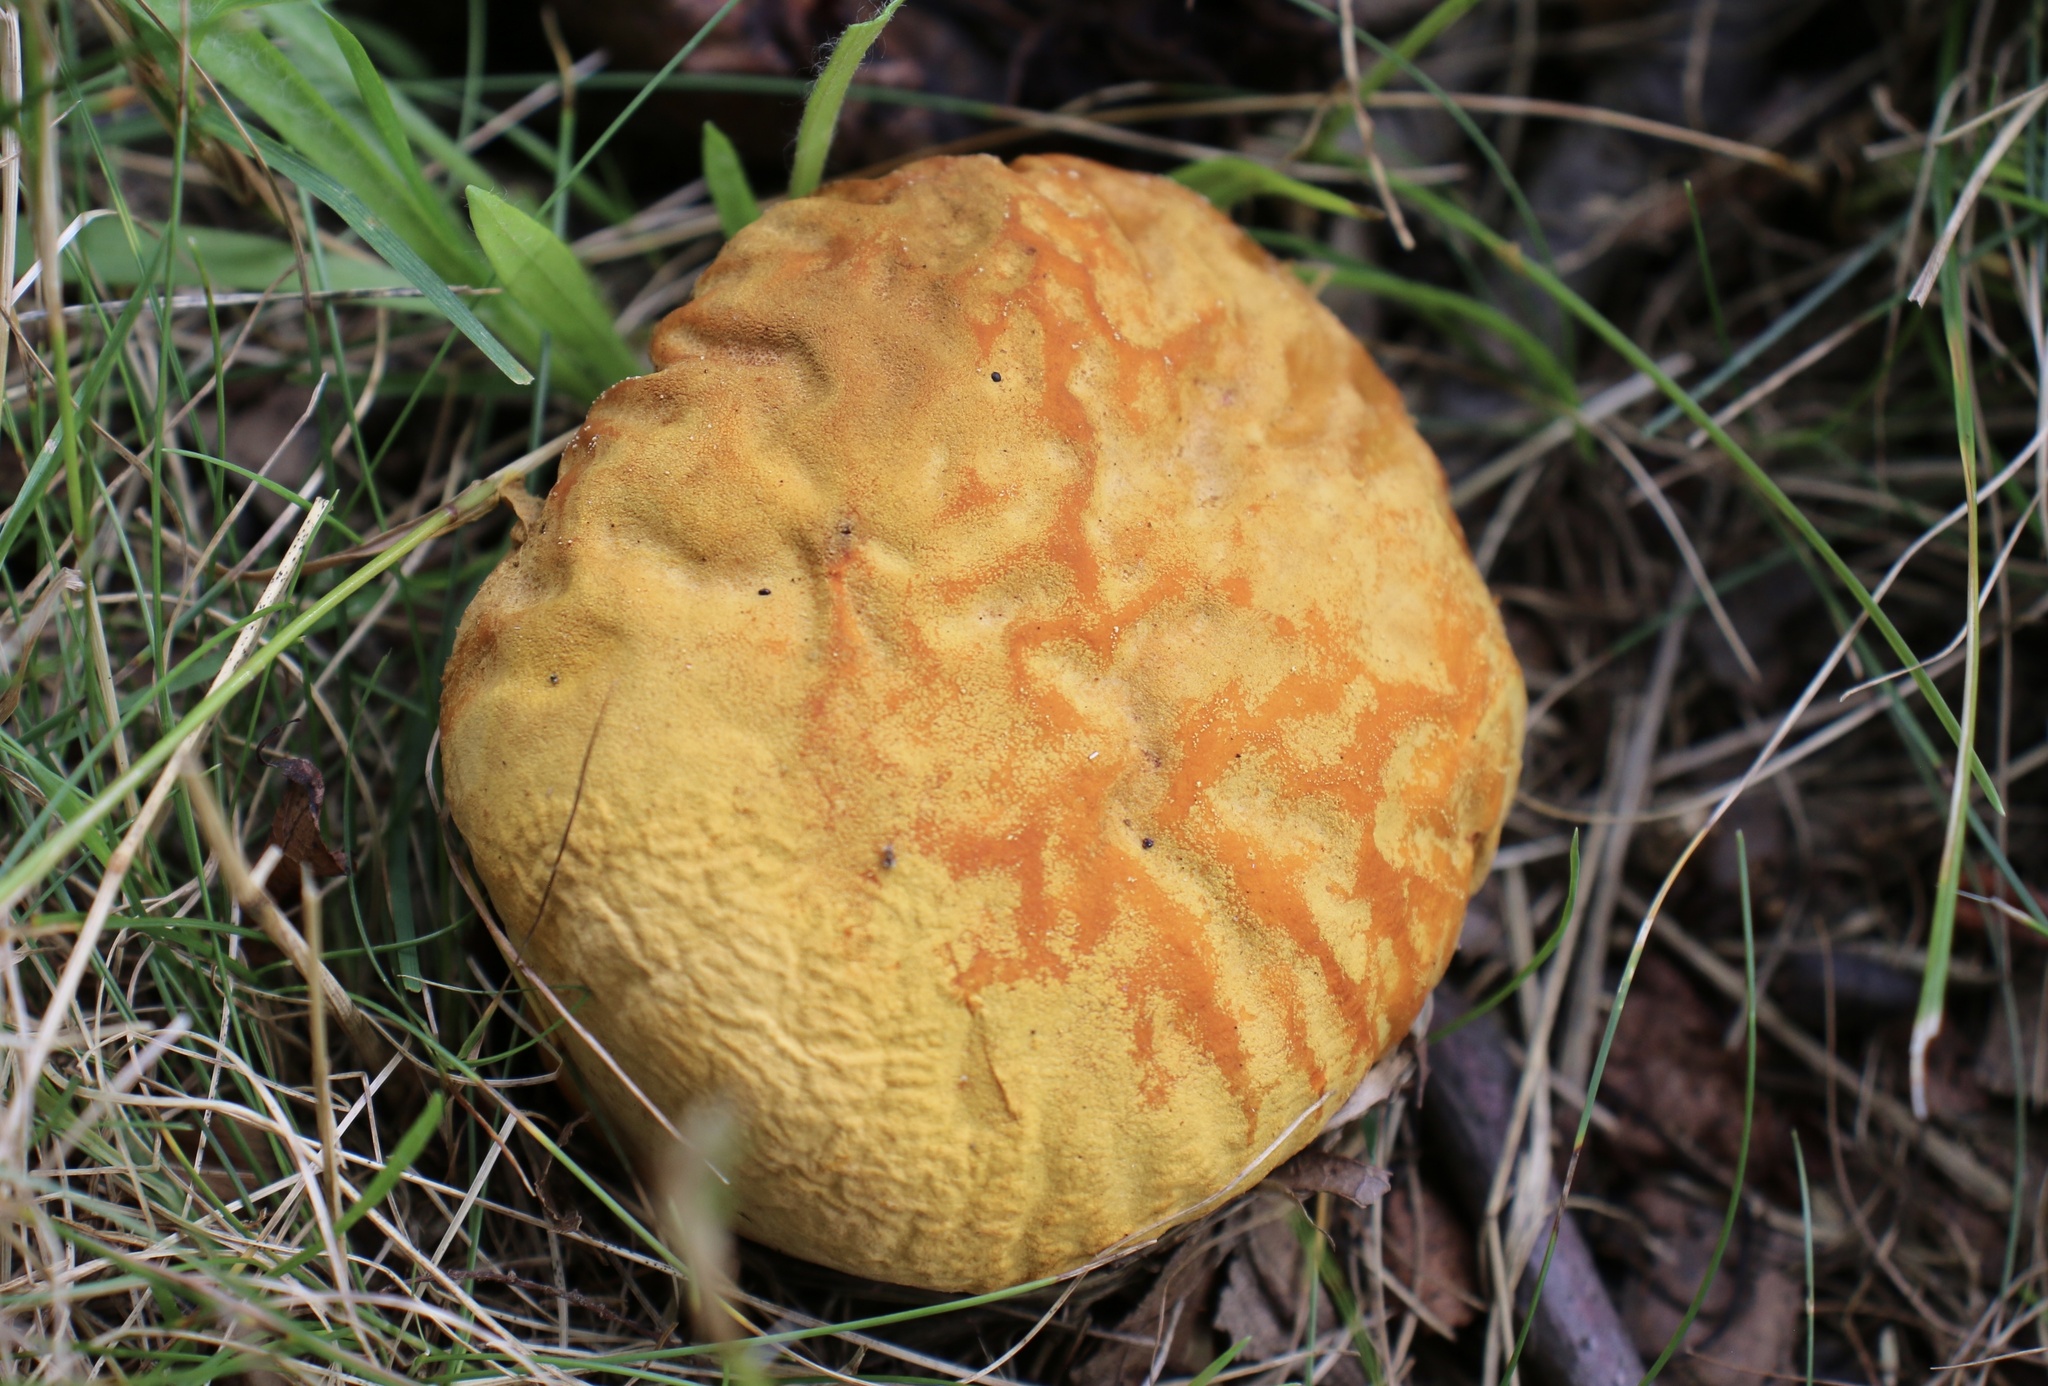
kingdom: Fungi
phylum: Basidiomycota
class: Agaricomycetes
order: Agaricales
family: Lycoperdaceae
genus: Calvatia
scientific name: Calvatia candida
